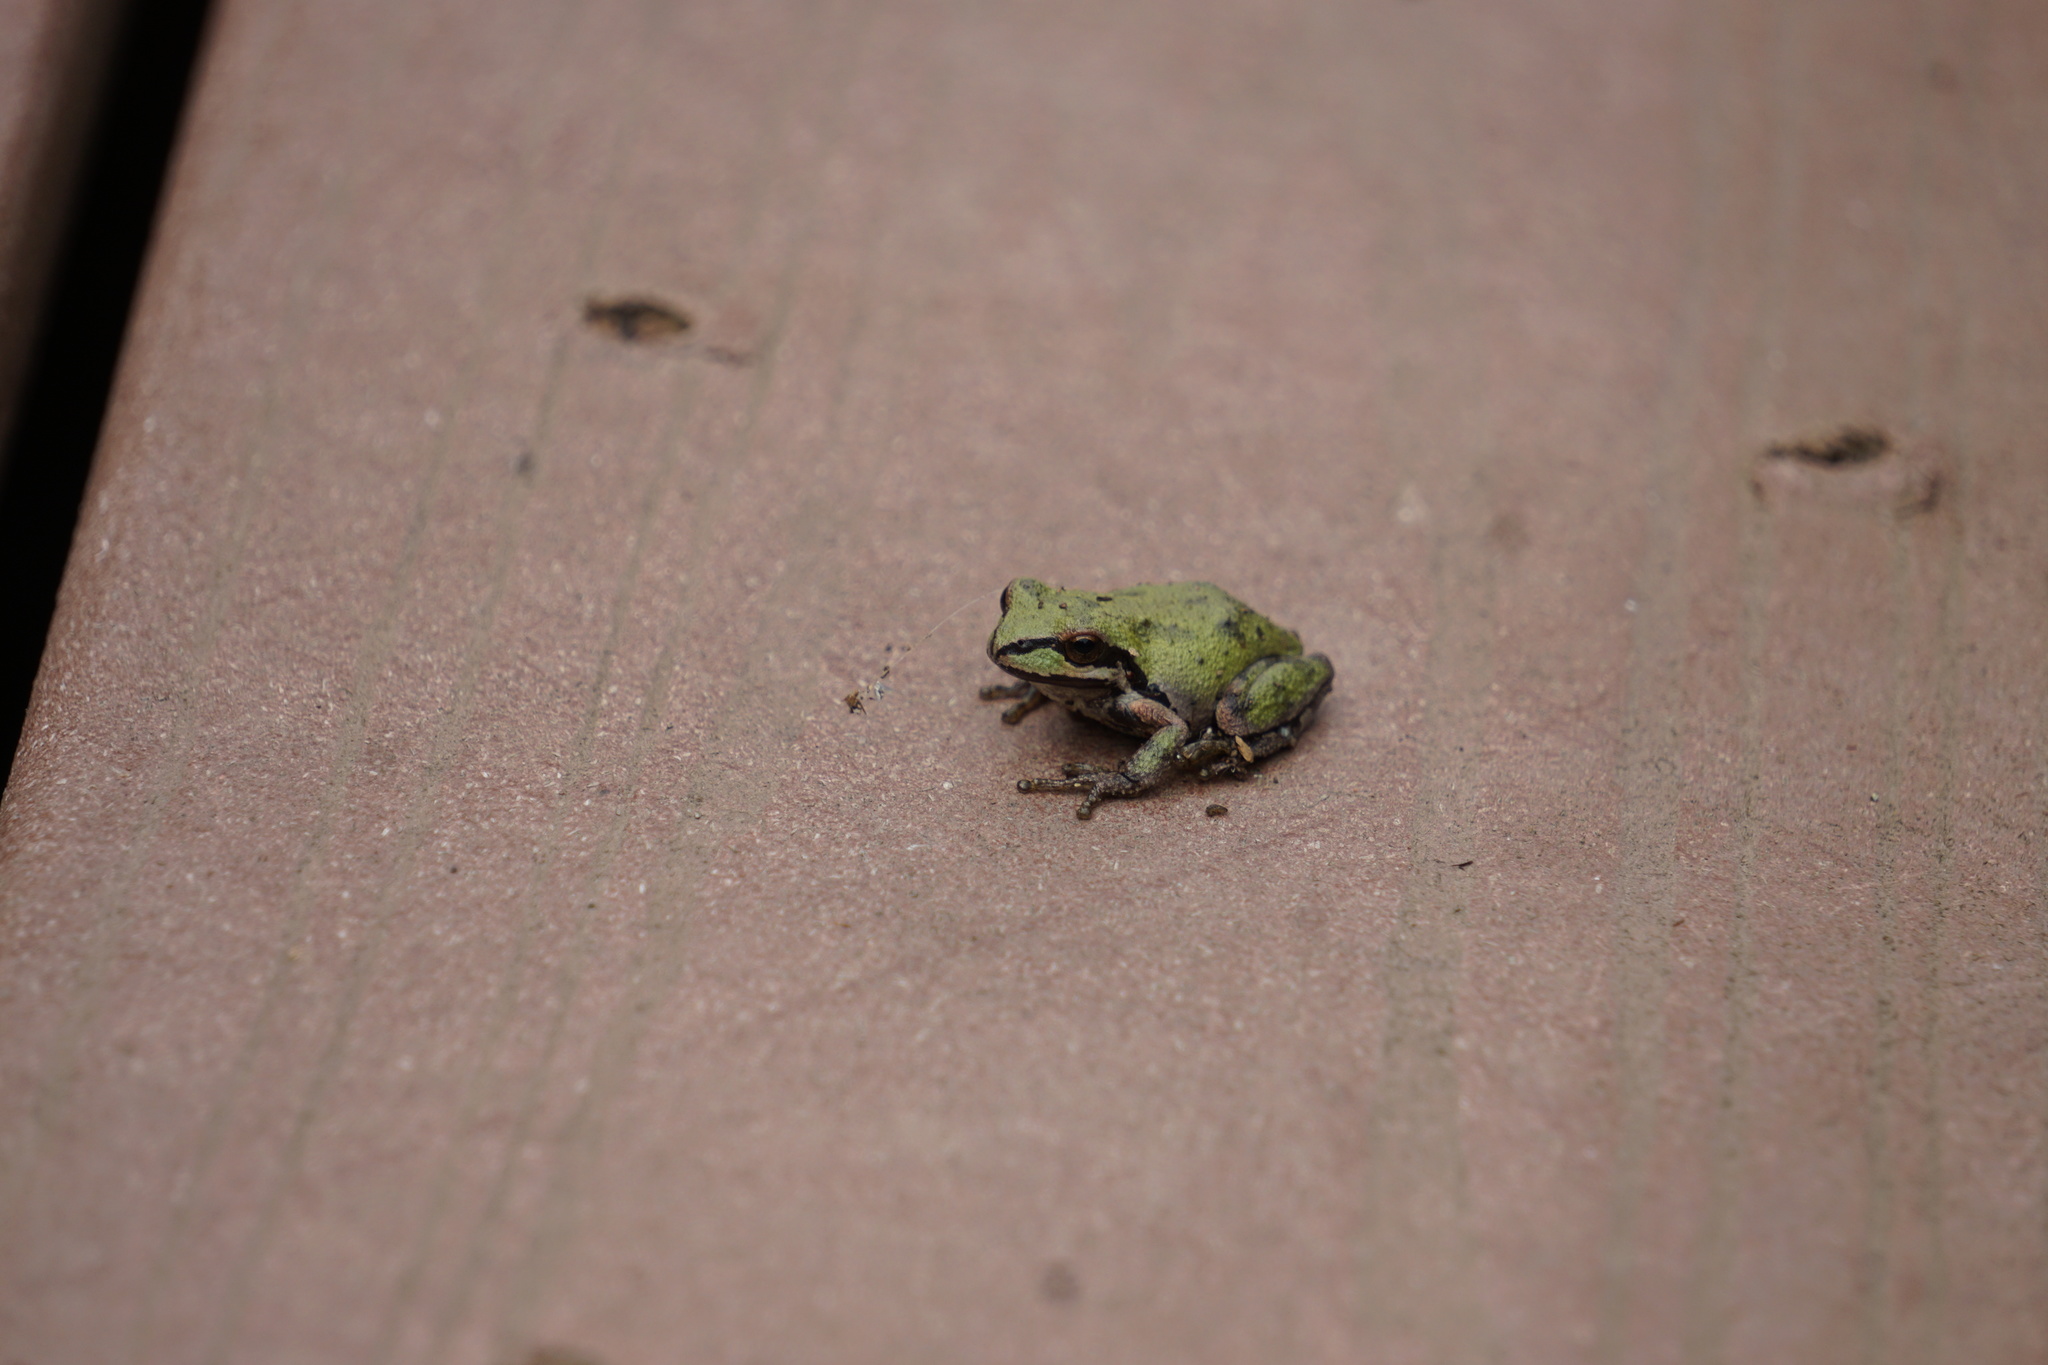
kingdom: Animalia
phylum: Chordata
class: Amphibia
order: Anura
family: Hylidae
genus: Pseudacris
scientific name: Pseudacris regilla
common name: Pacific chorus frog
